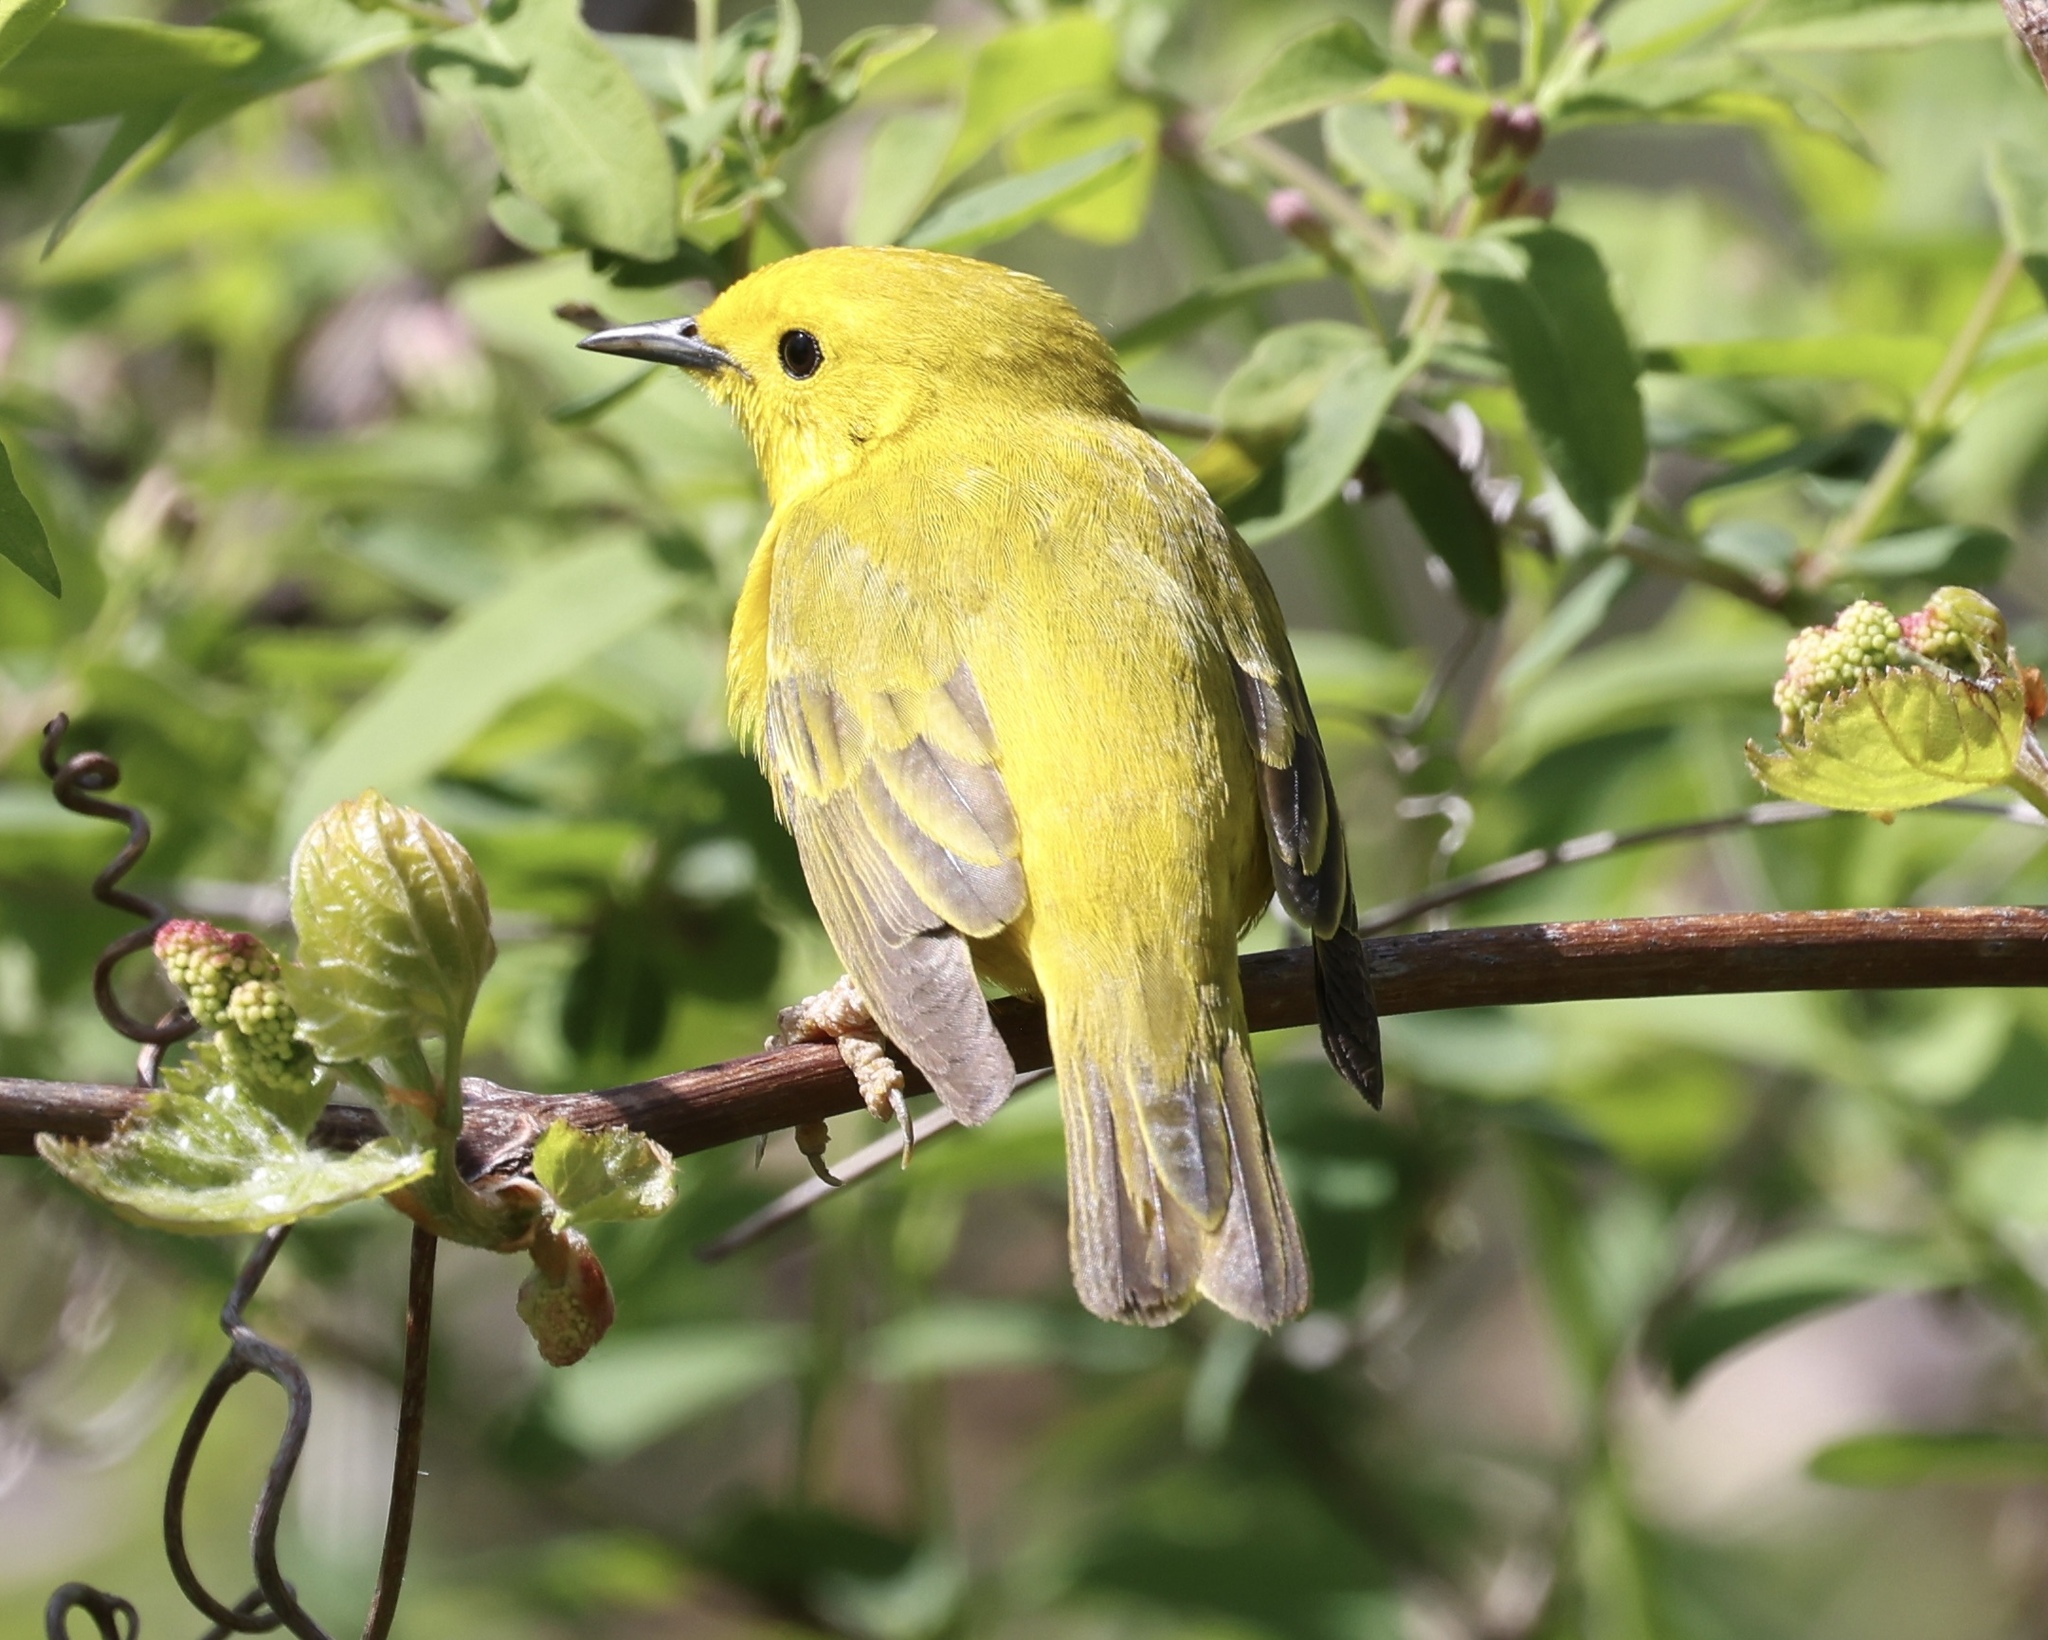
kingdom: Animalia
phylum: Chordata
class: Aves
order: Passeriformes
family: Parulidae
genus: Setophaga
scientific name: Setophaga petechia
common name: Yellow warbler
